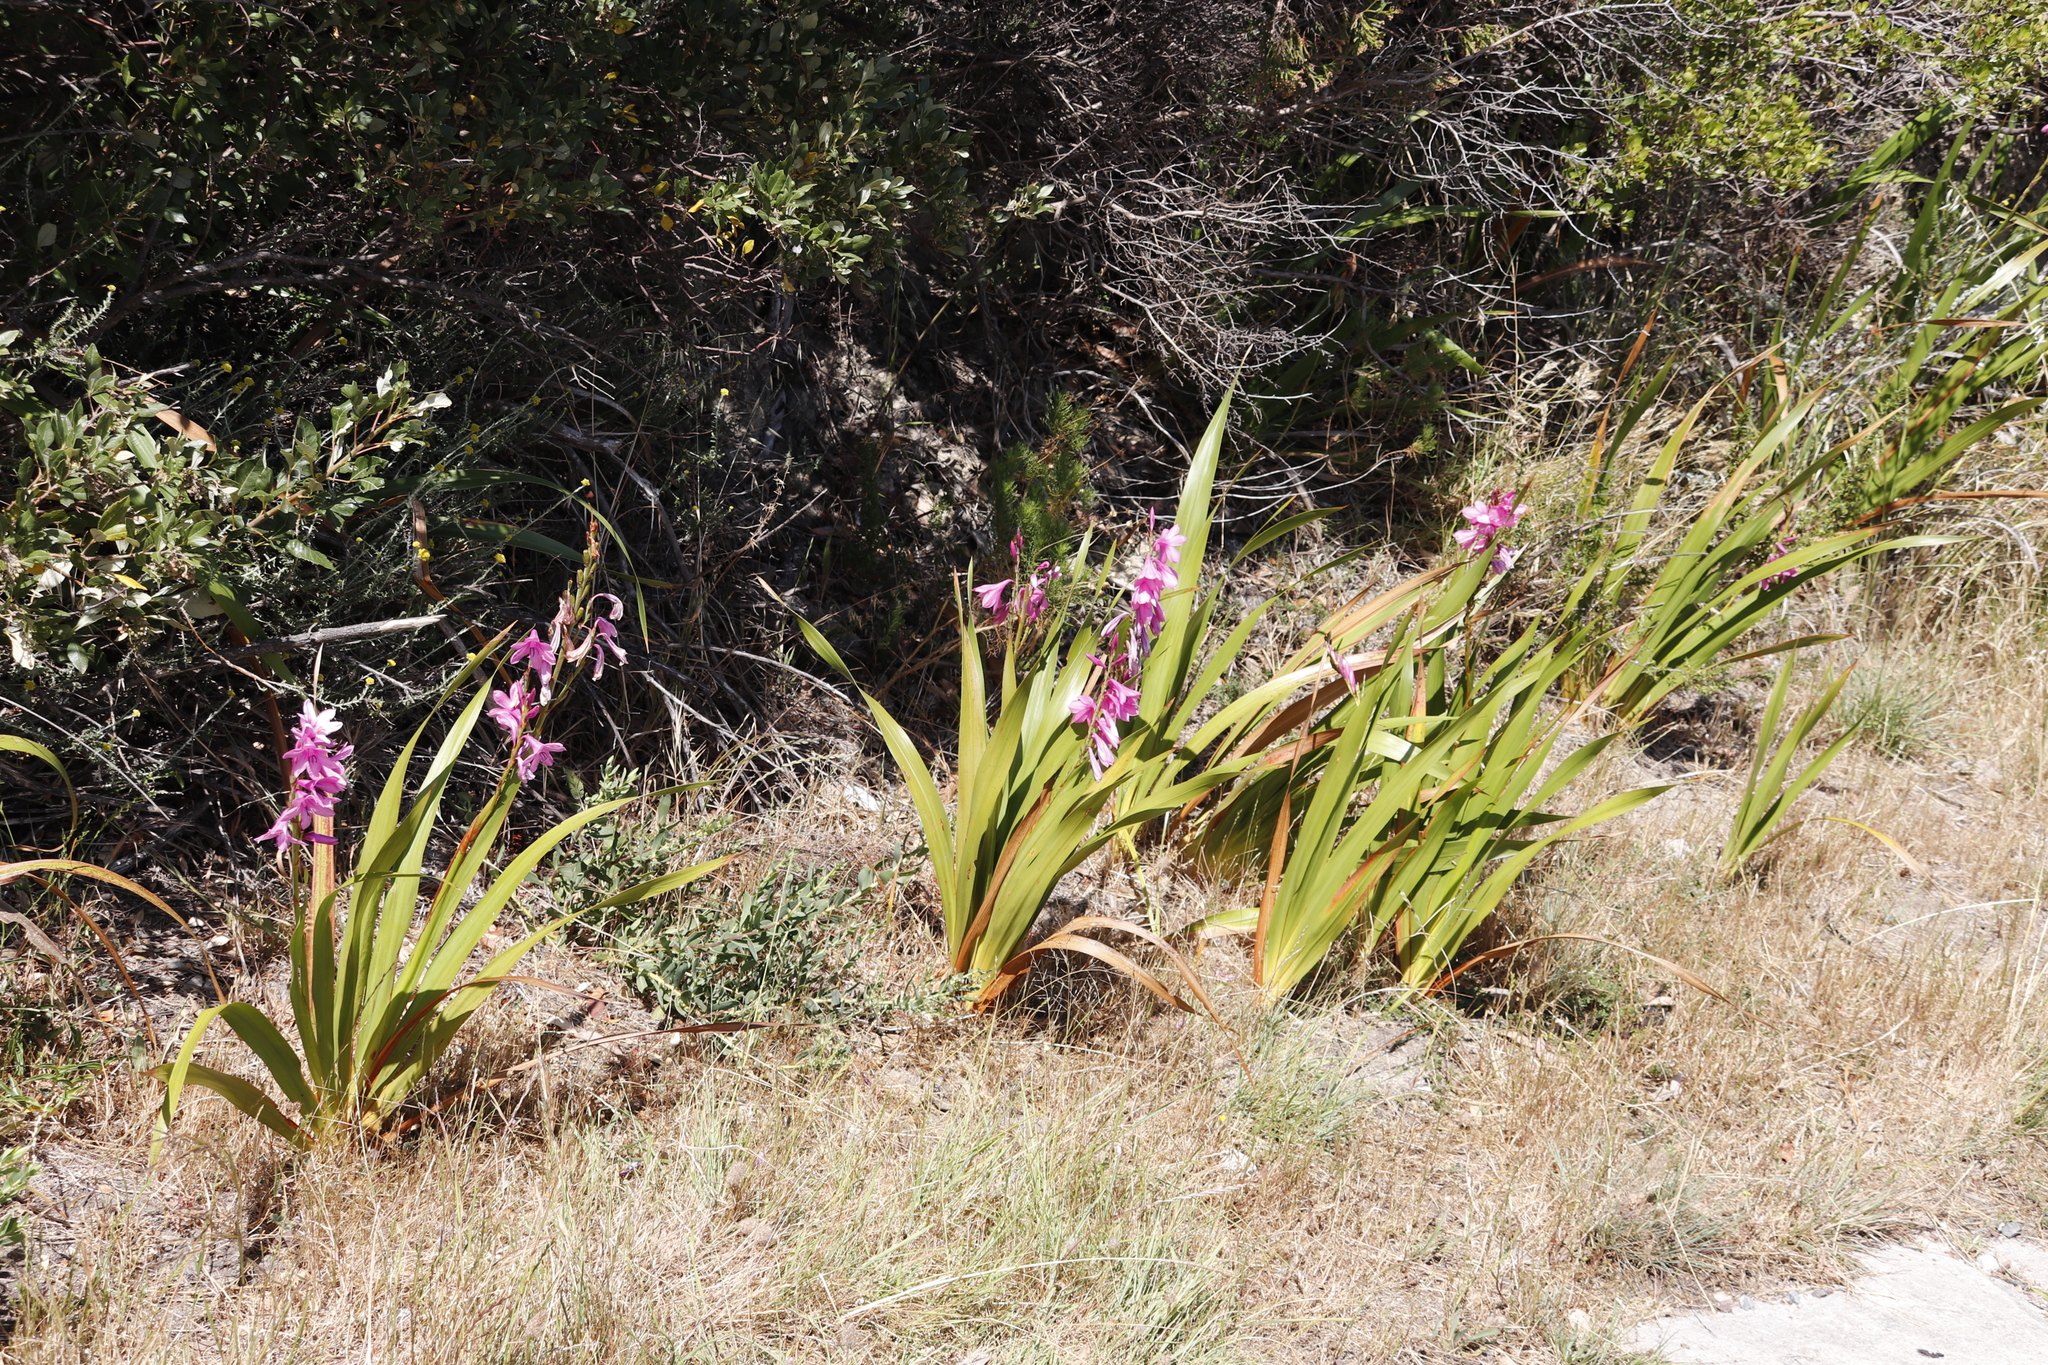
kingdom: Plantae
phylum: Tracheophyta
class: Liliopsida
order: Asparagales
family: Iridaceae
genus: Watsonia
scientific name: Watsonia borbonica
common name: Bugle-lily
